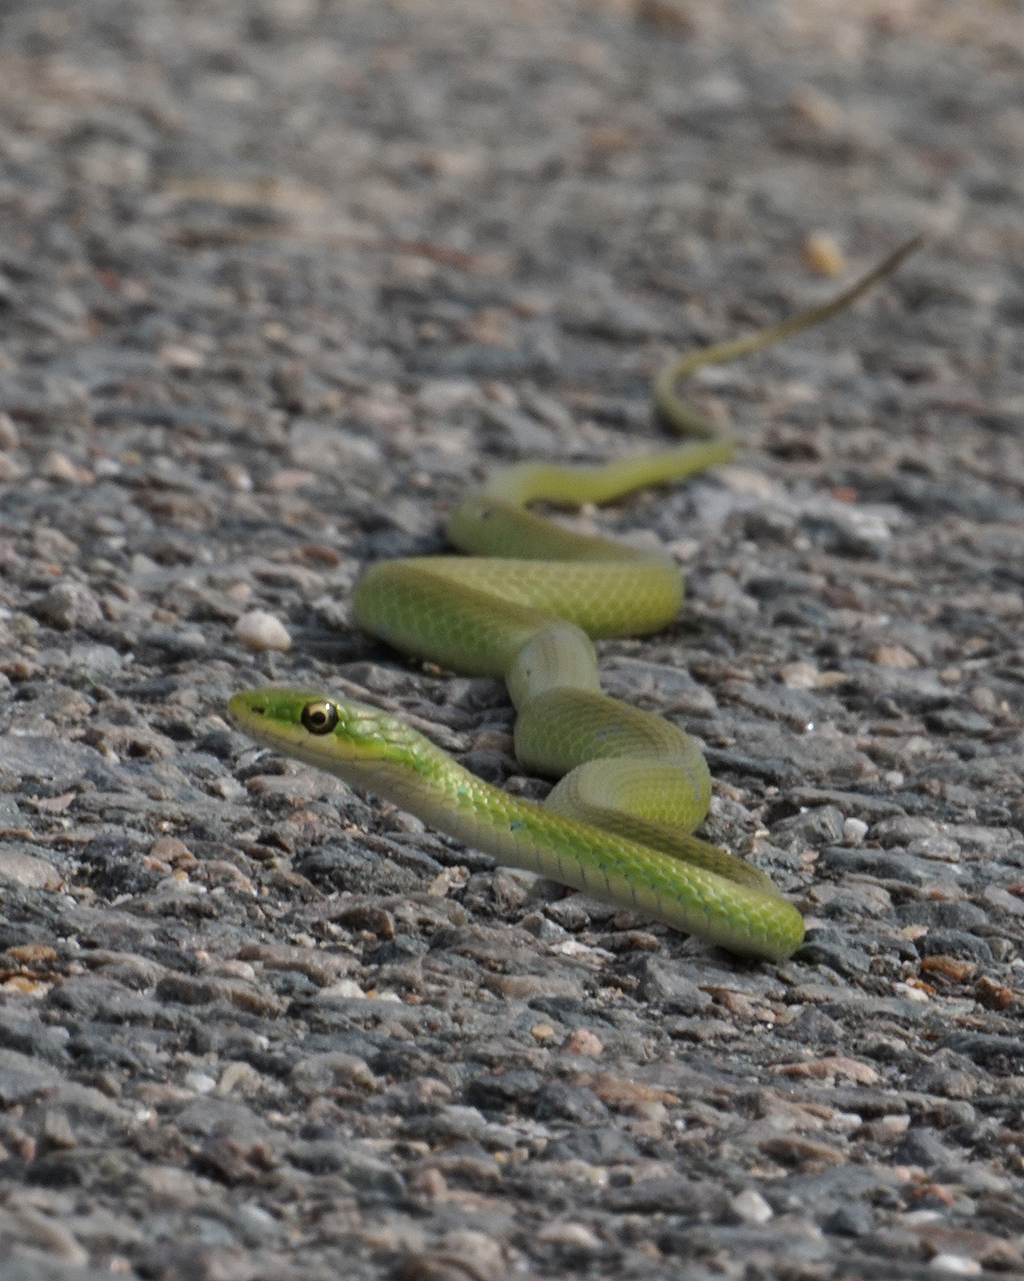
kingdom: Animalia
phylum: Chordata
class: Squamata
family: Colubridae
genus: Opheodrys
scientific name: Opheodrys aestivus
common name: Rough greensnake
